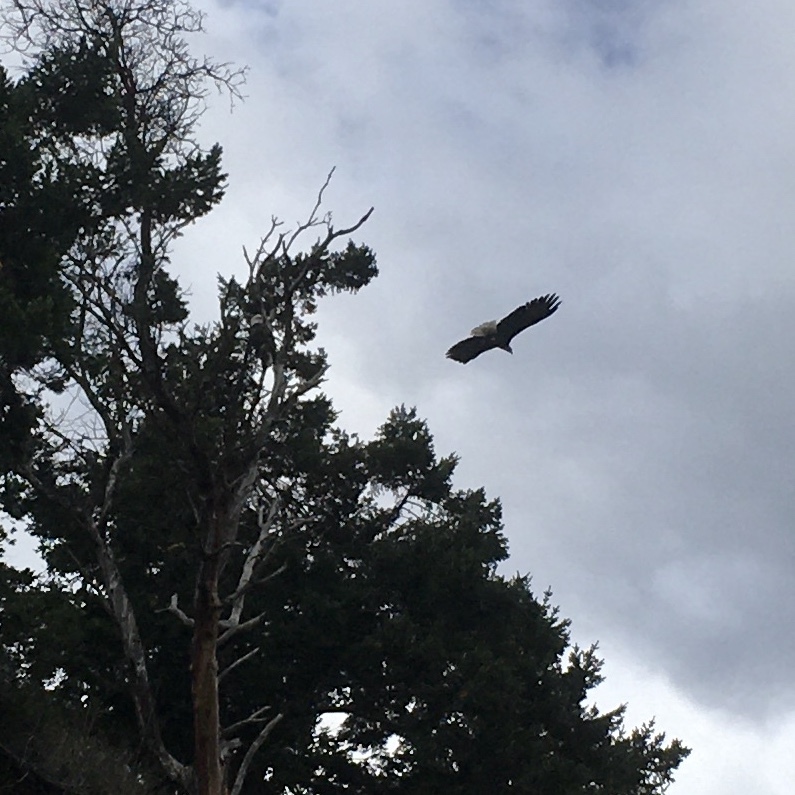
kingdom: Animalia
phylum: Chordata
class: Aves
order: Accipitriformes
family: Accipitridae
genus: Haliaeetus
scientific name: Haliaeetus leucocephalus
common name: Bald eagle
